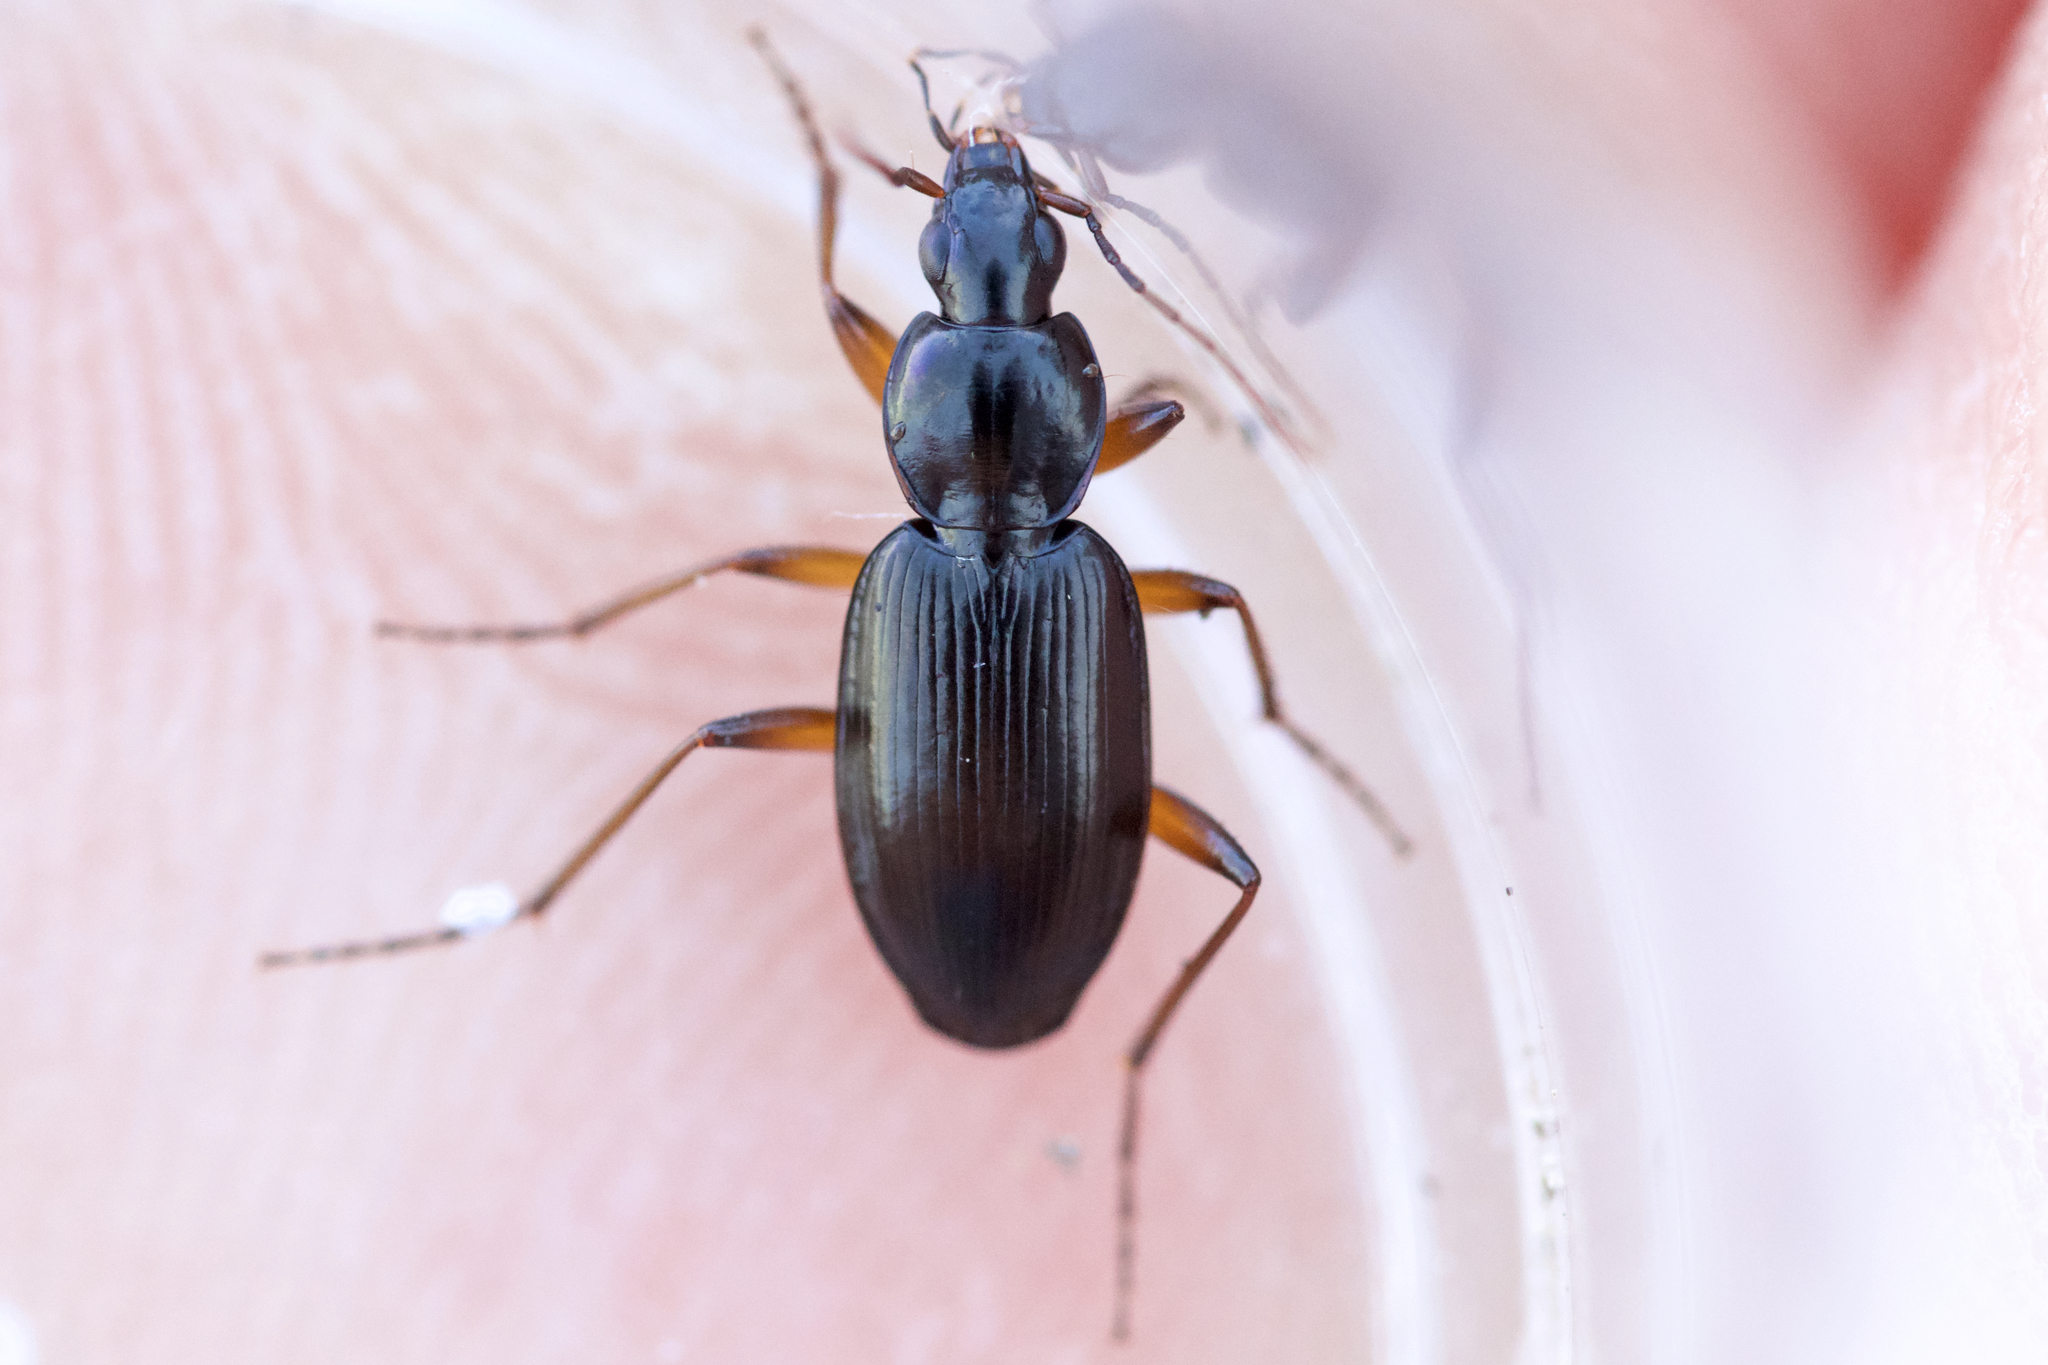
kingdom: Animalia
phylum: Arthropoda
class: Insecta
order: Coleoptera
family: Carabidae
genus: Agonum
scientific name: Agonum gratiosum
